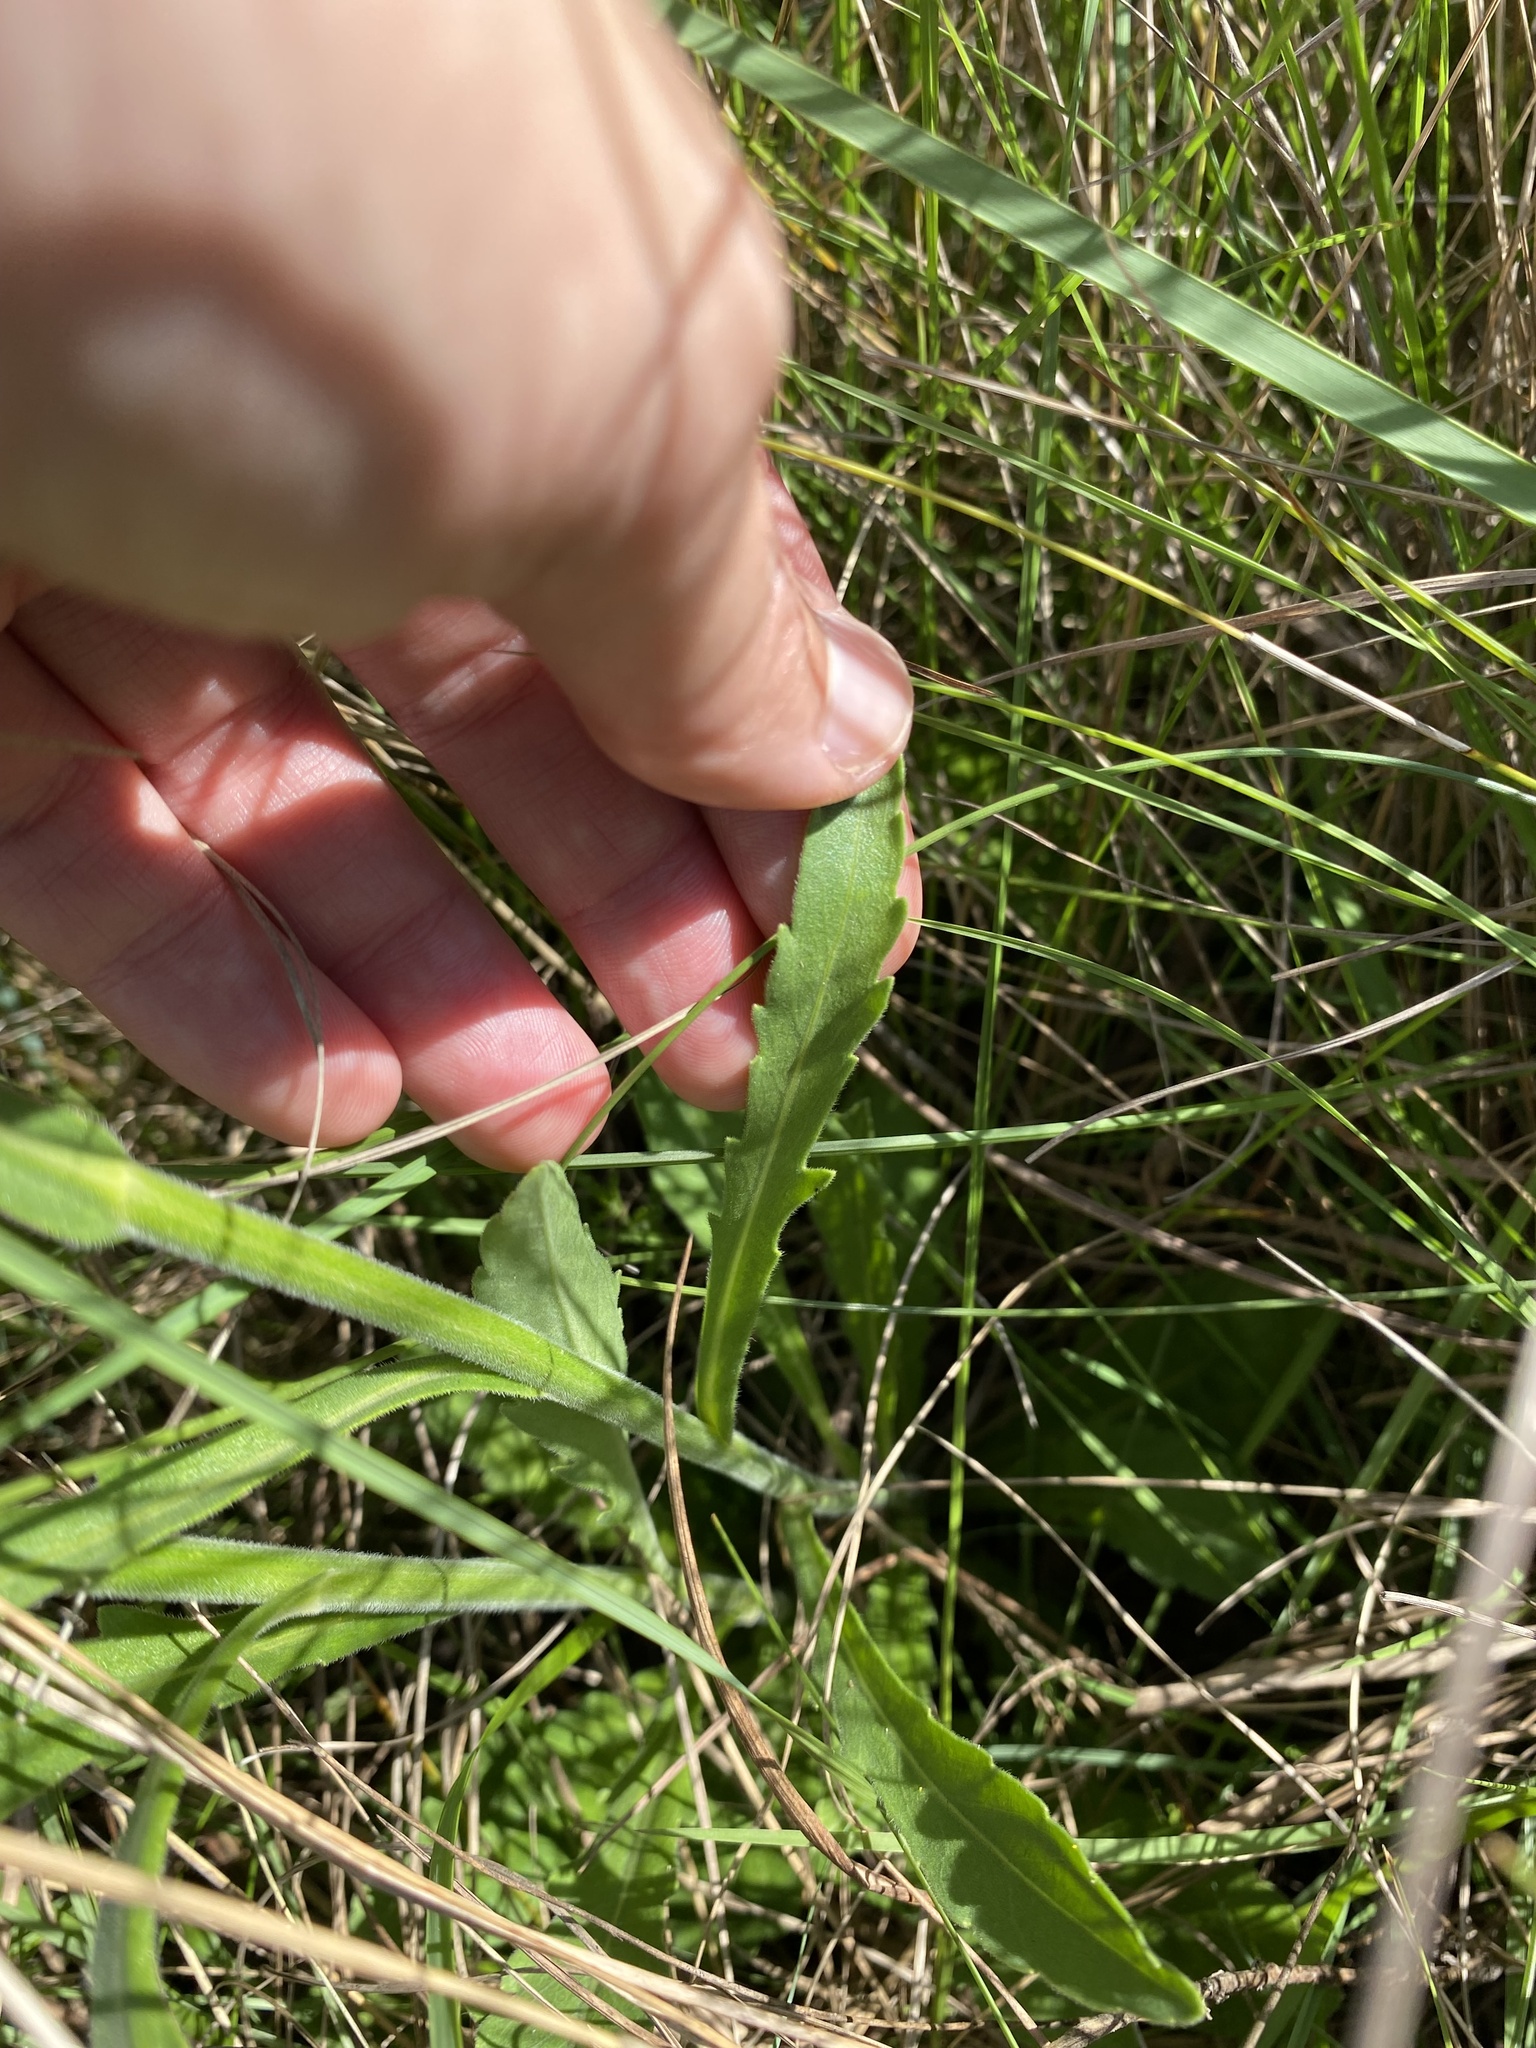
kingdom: Plantae
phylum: Tracheophyta
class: Magnoliopsida
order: Asterales
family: Asteraceae
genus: Erigeron
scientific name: Erigeron primulifolius
